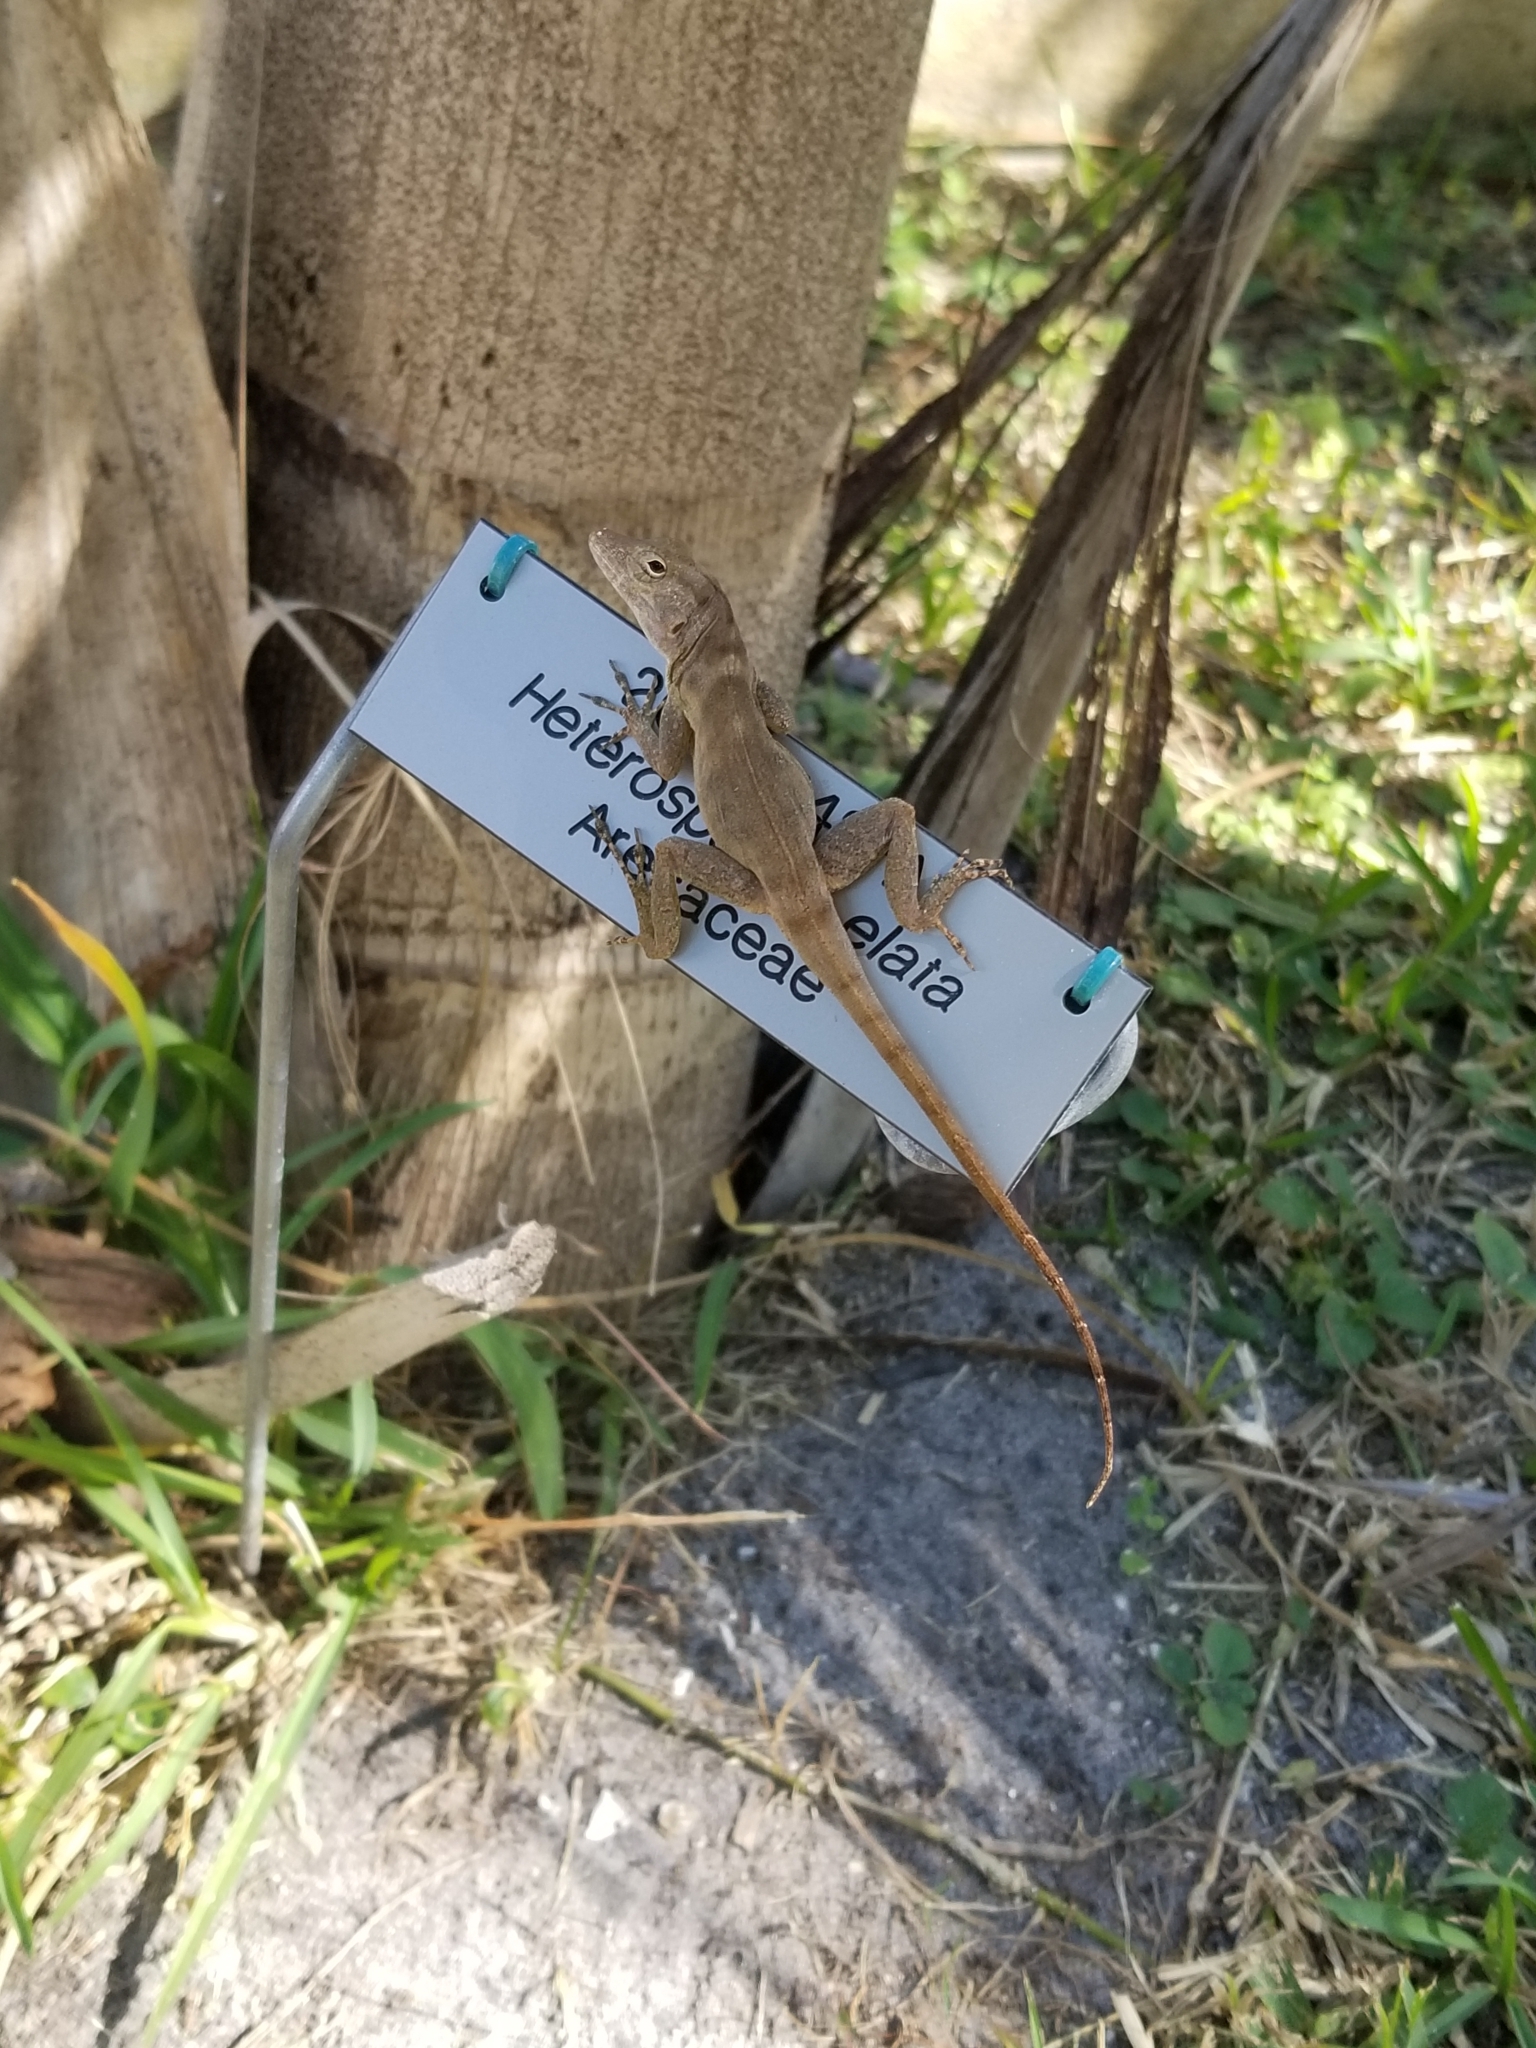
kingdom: Animalia
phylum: Chordata
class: Squamata
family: Dactyloidae
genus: Anolis
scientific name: Anolis cristatellus
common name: Crested anole
